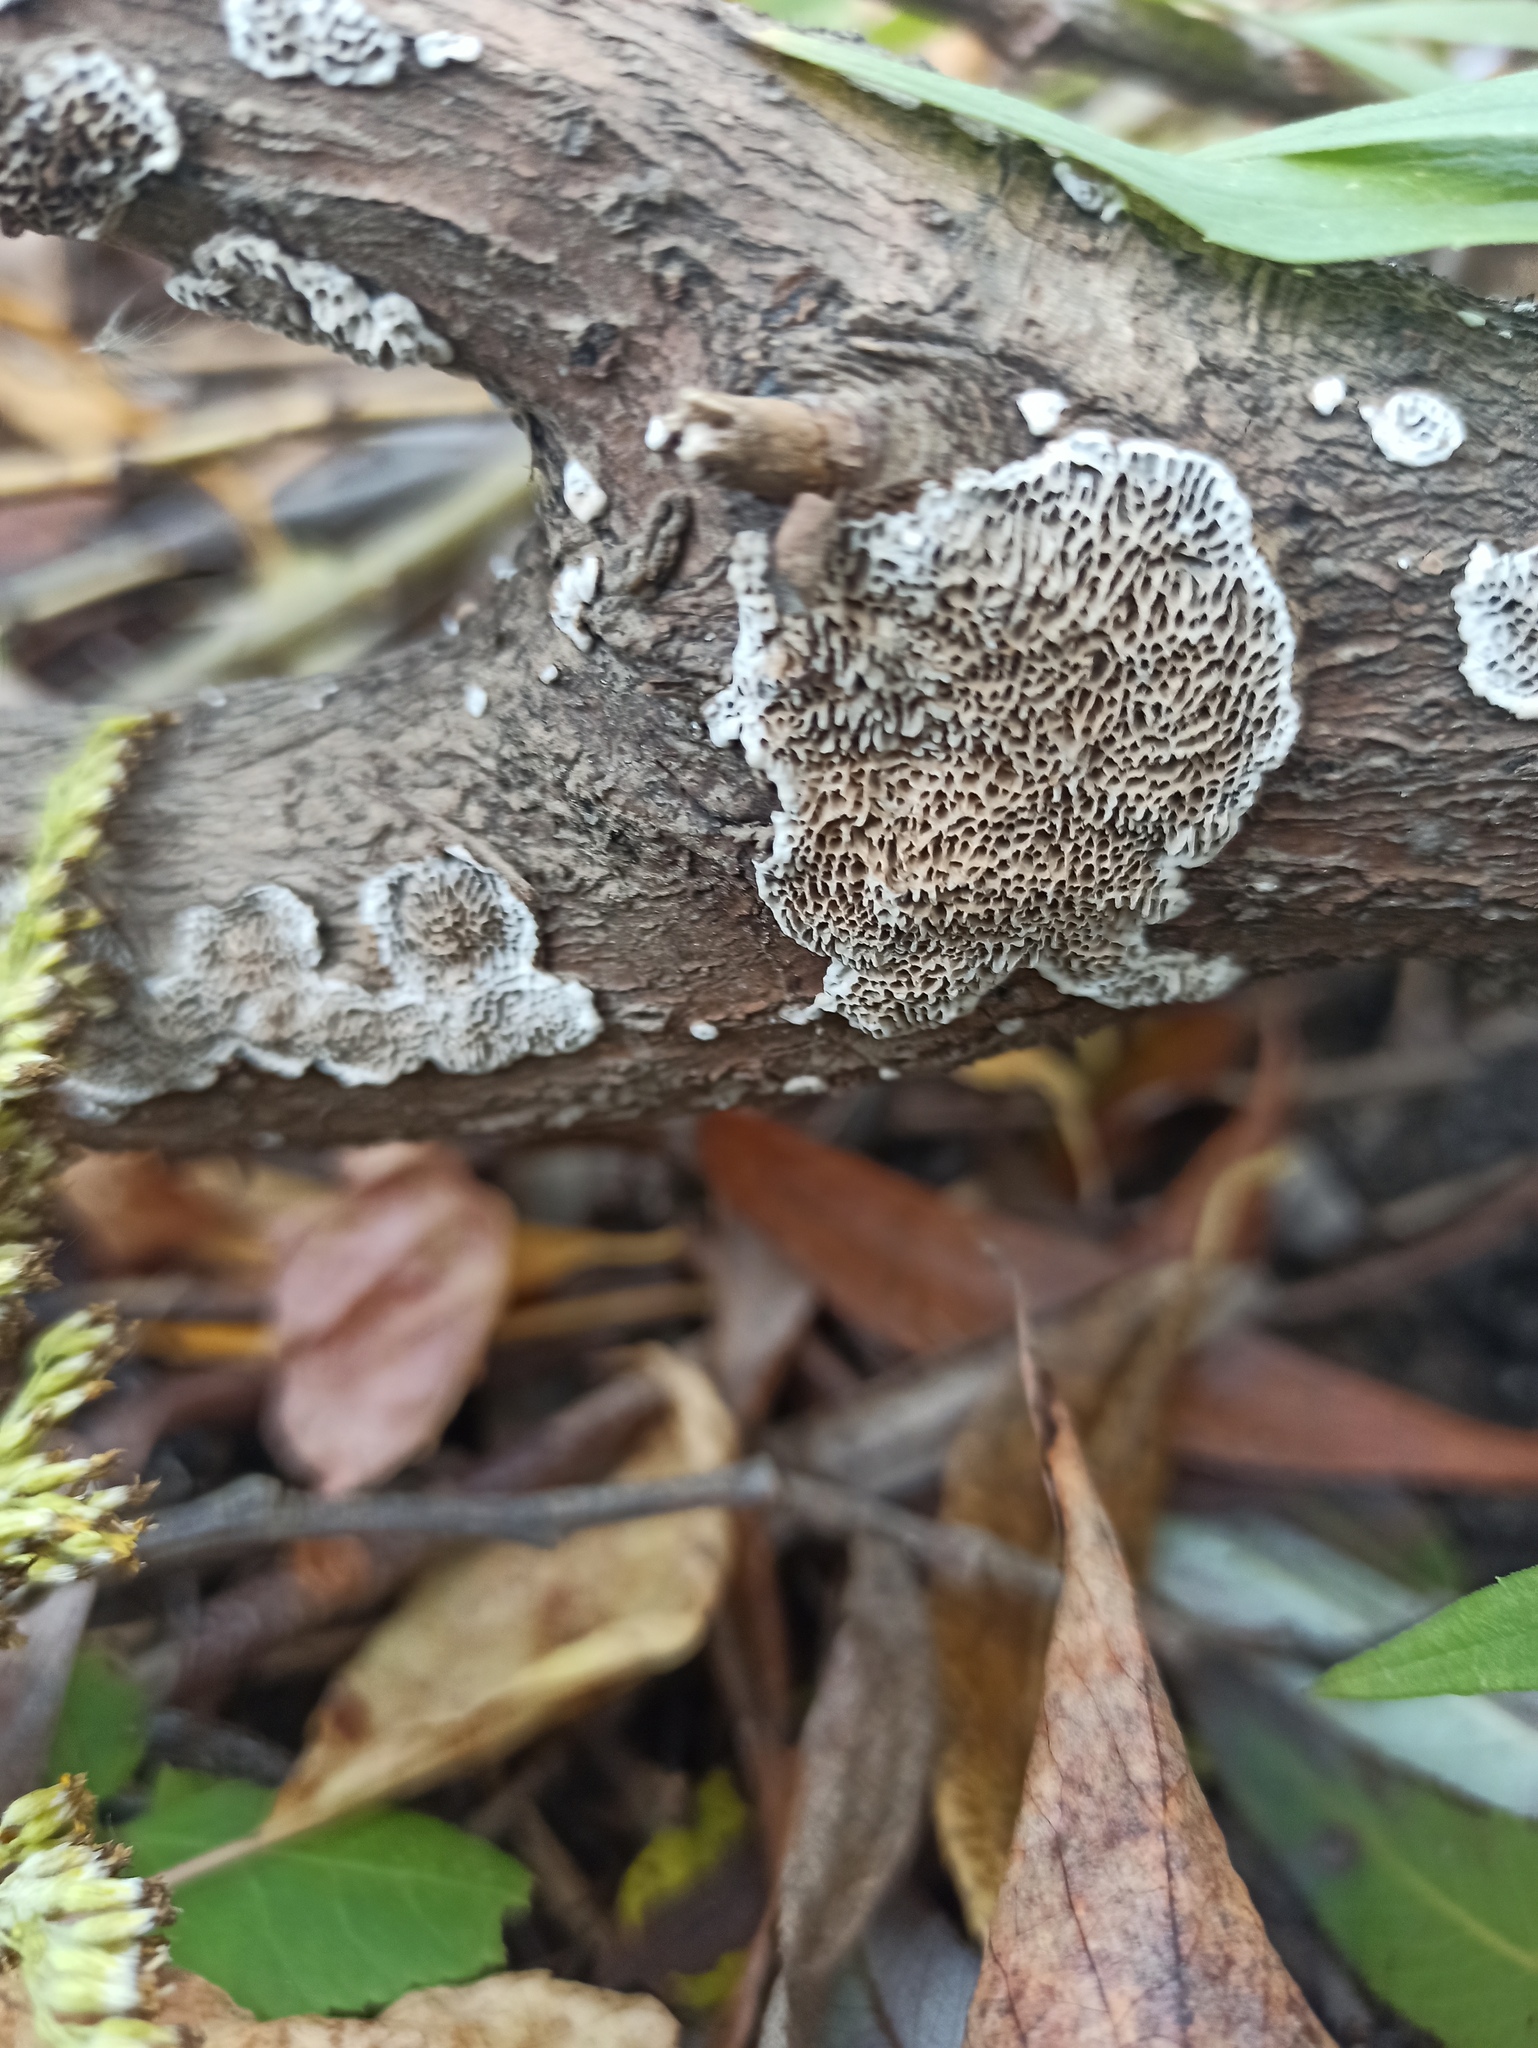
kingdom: Fungi
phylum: Basidiomycota
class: Agaricomycetes
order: Polyporales
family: Polyporaceae
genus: Podofomes
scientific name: Podofomes mollis
